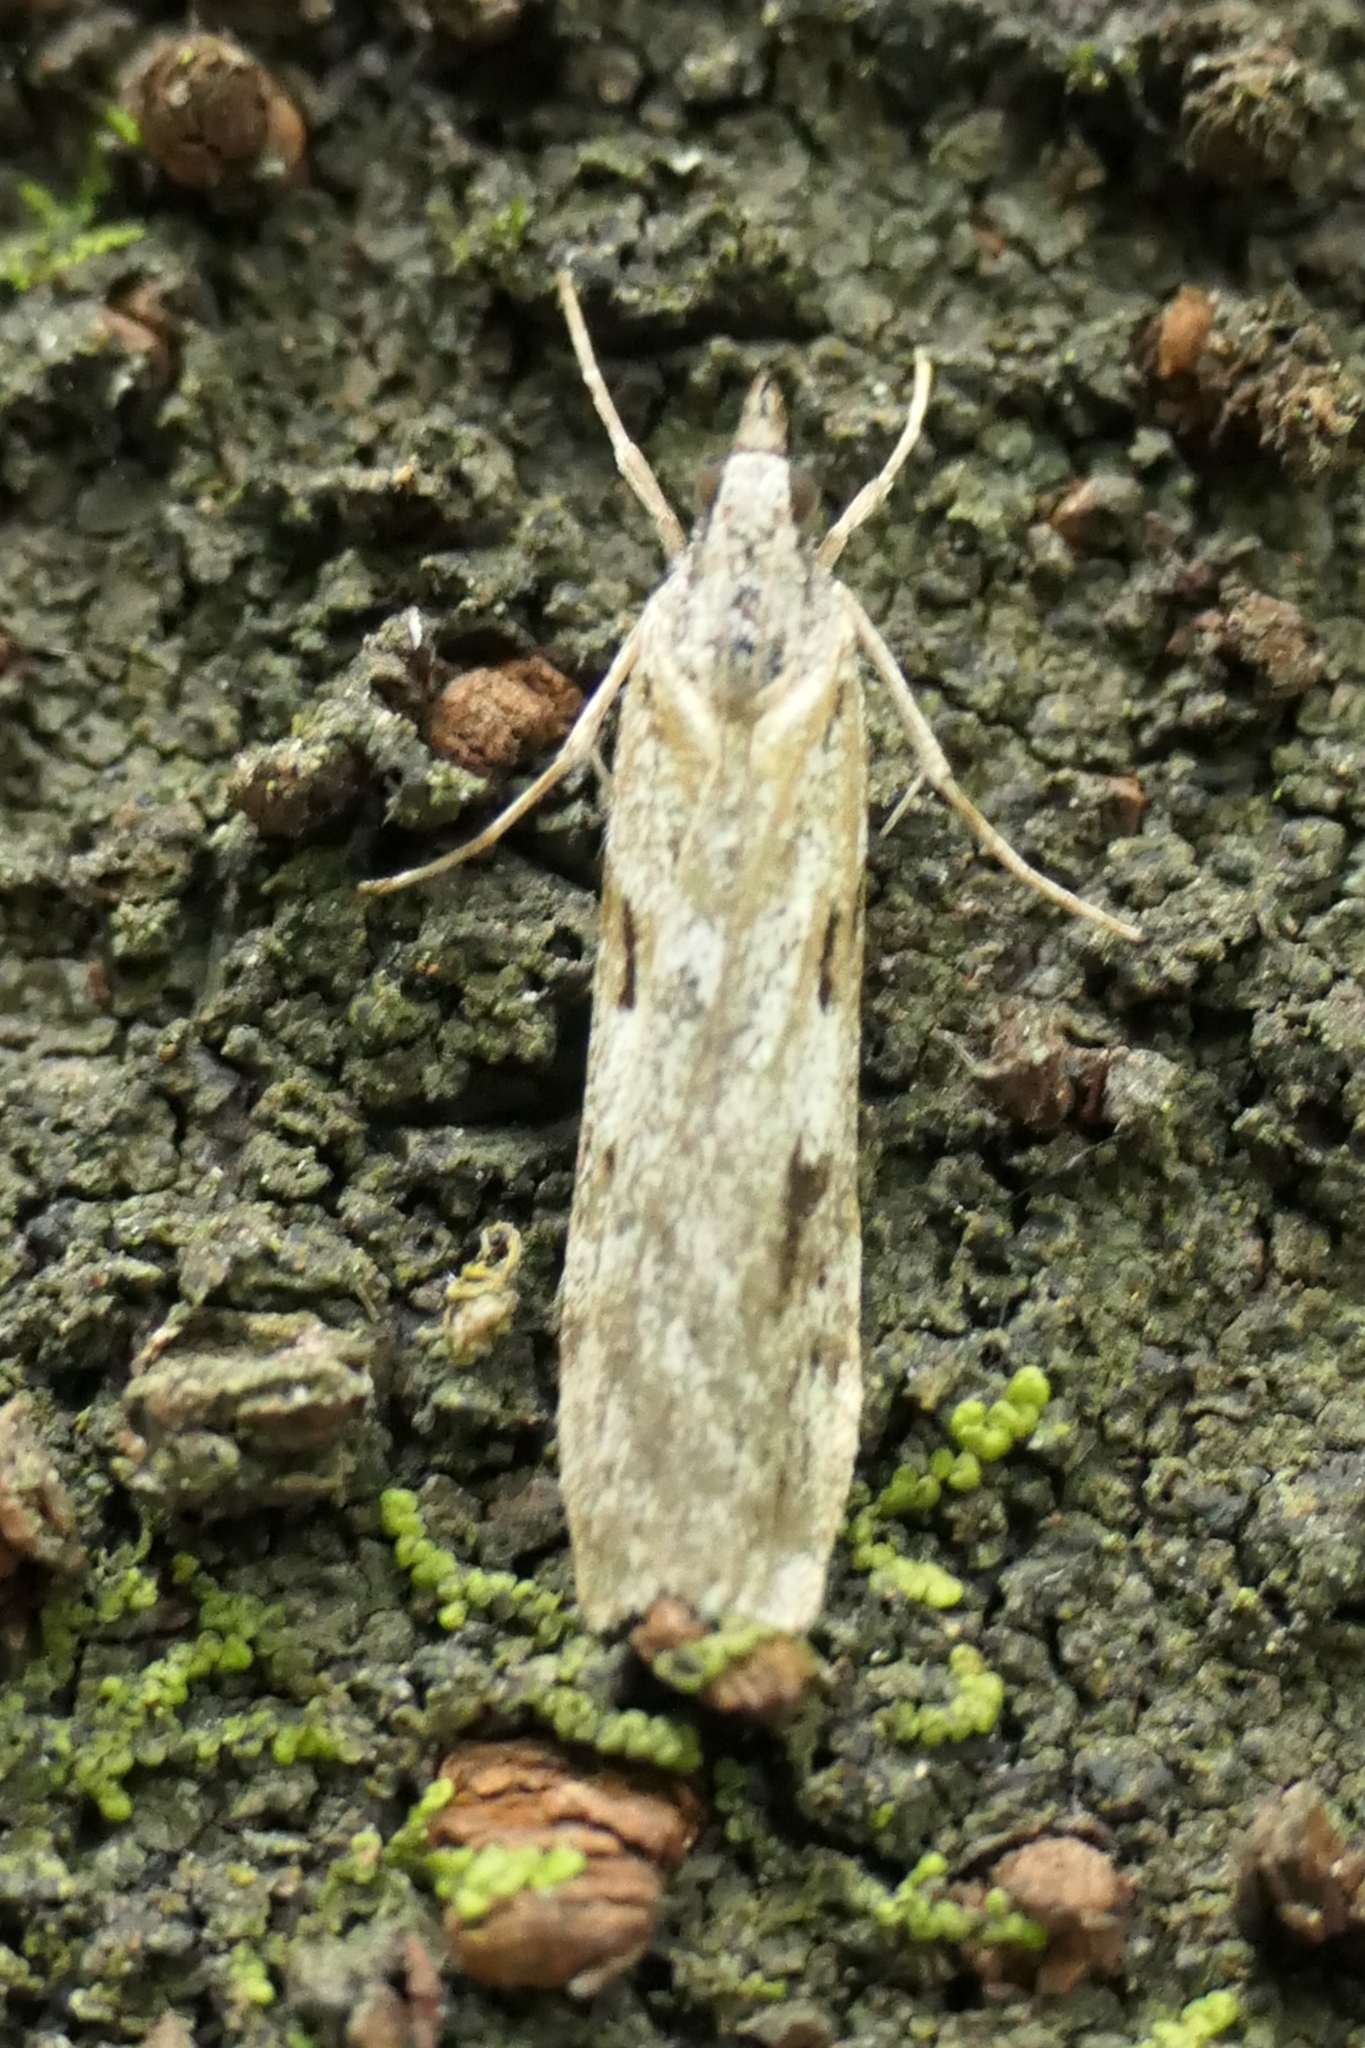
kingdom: Animalia
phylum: Arthropoda
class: Insecta
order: Lepidoptera
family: Crambidae
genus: Scoparia
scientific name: Scoparia halopis
